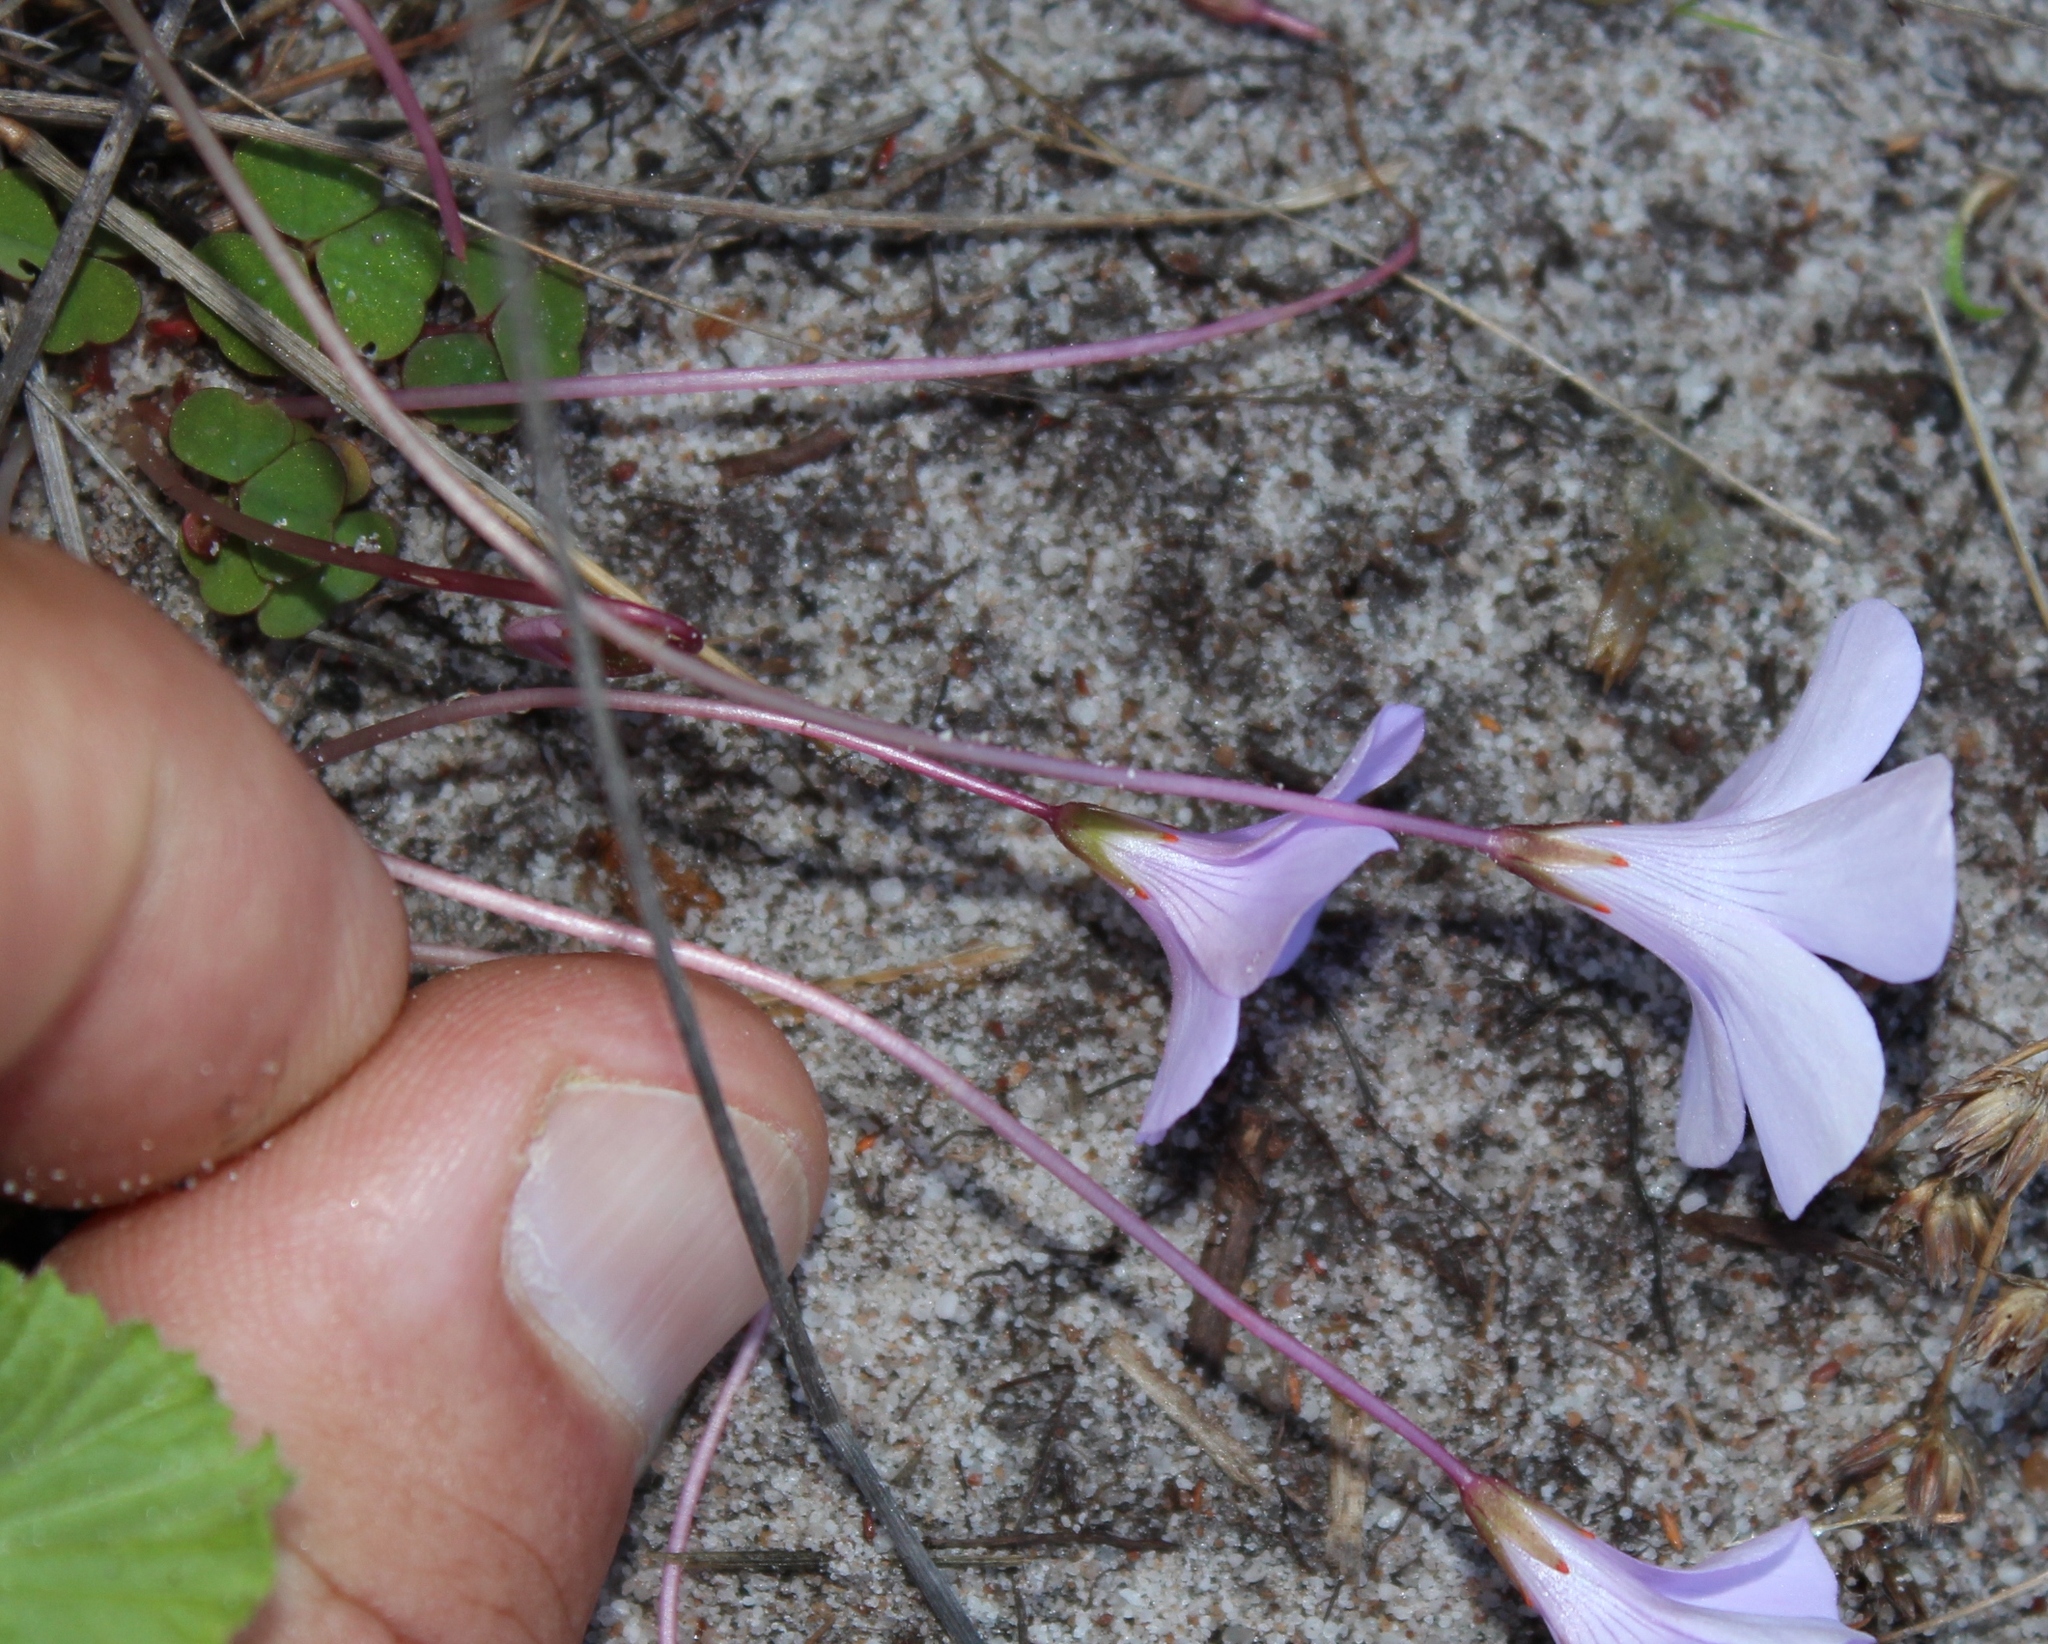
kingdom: Plantae
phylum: Tracheophyta
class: Magnoliopsida
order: Oxalidales
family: Oxalidaceae
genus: Oxalis
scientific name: Oxalis commutata
